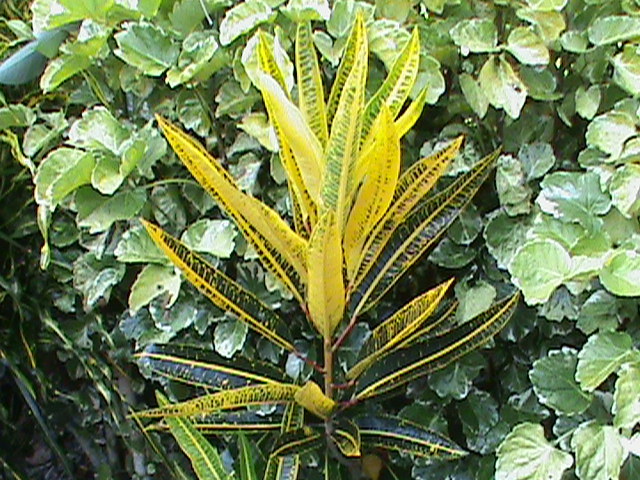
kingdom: Plantae
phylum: Tracheophyta
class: Magnoliopsida
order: Malpighiales
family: Euphorbiaceae
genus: Codiaeum
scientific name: Codiaeum variegatum
